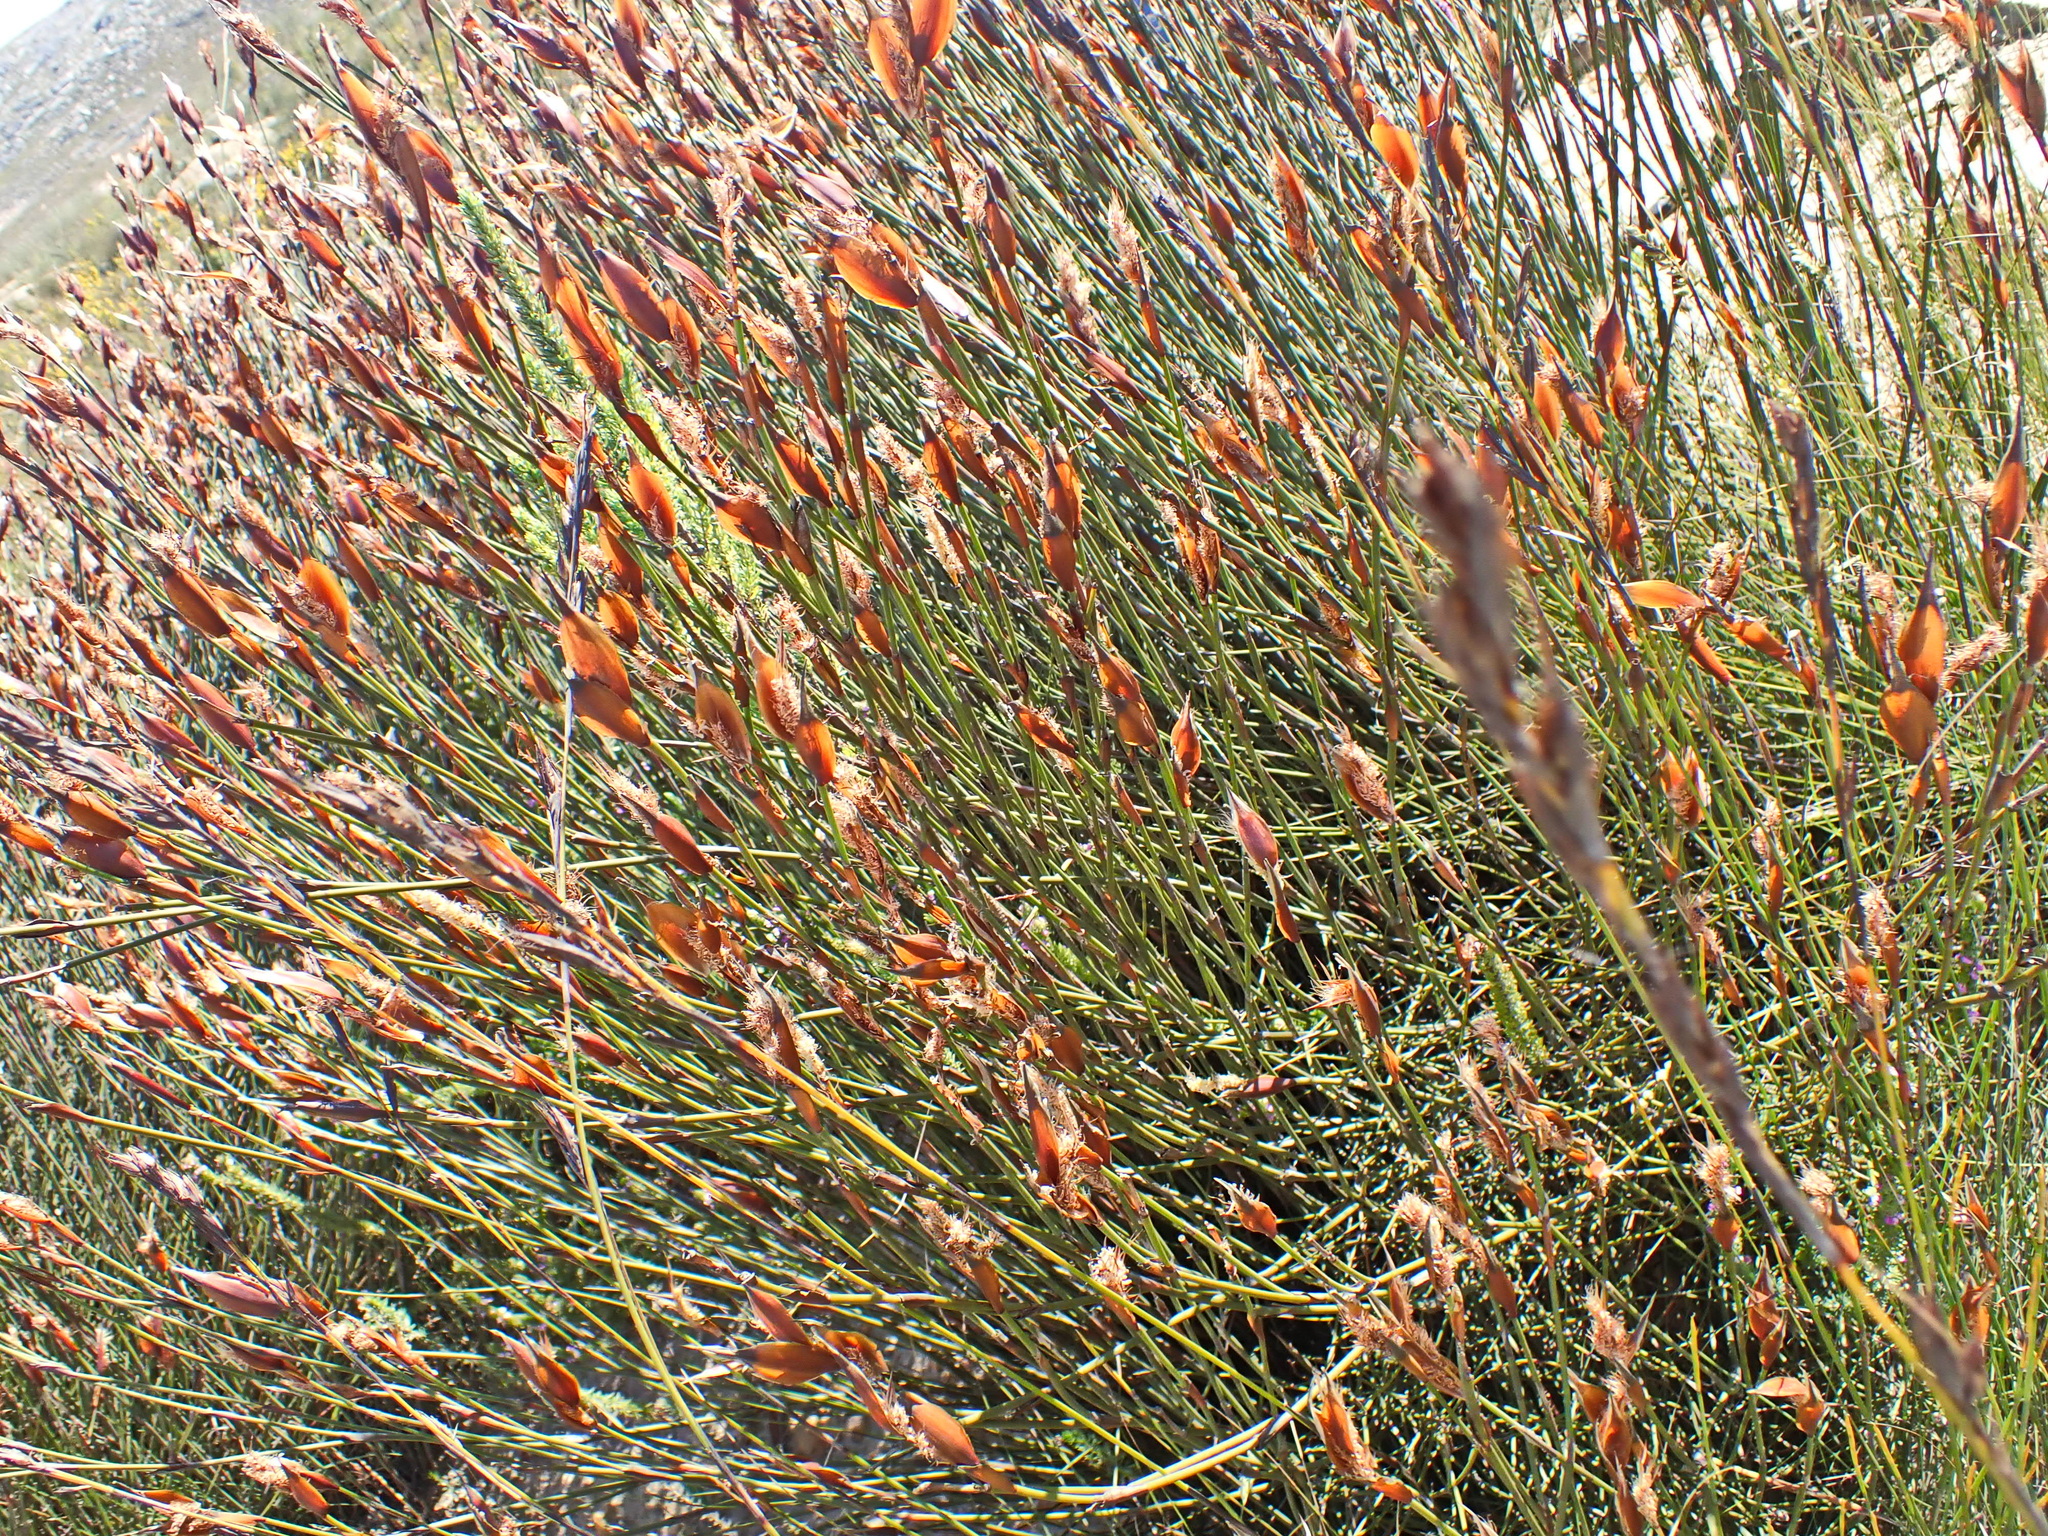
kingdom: Plantae
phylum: Tracheophyta
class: Liliopsida
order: Poales
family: Restionaceae
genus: Willdenowia
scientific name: Willdenowia teres
